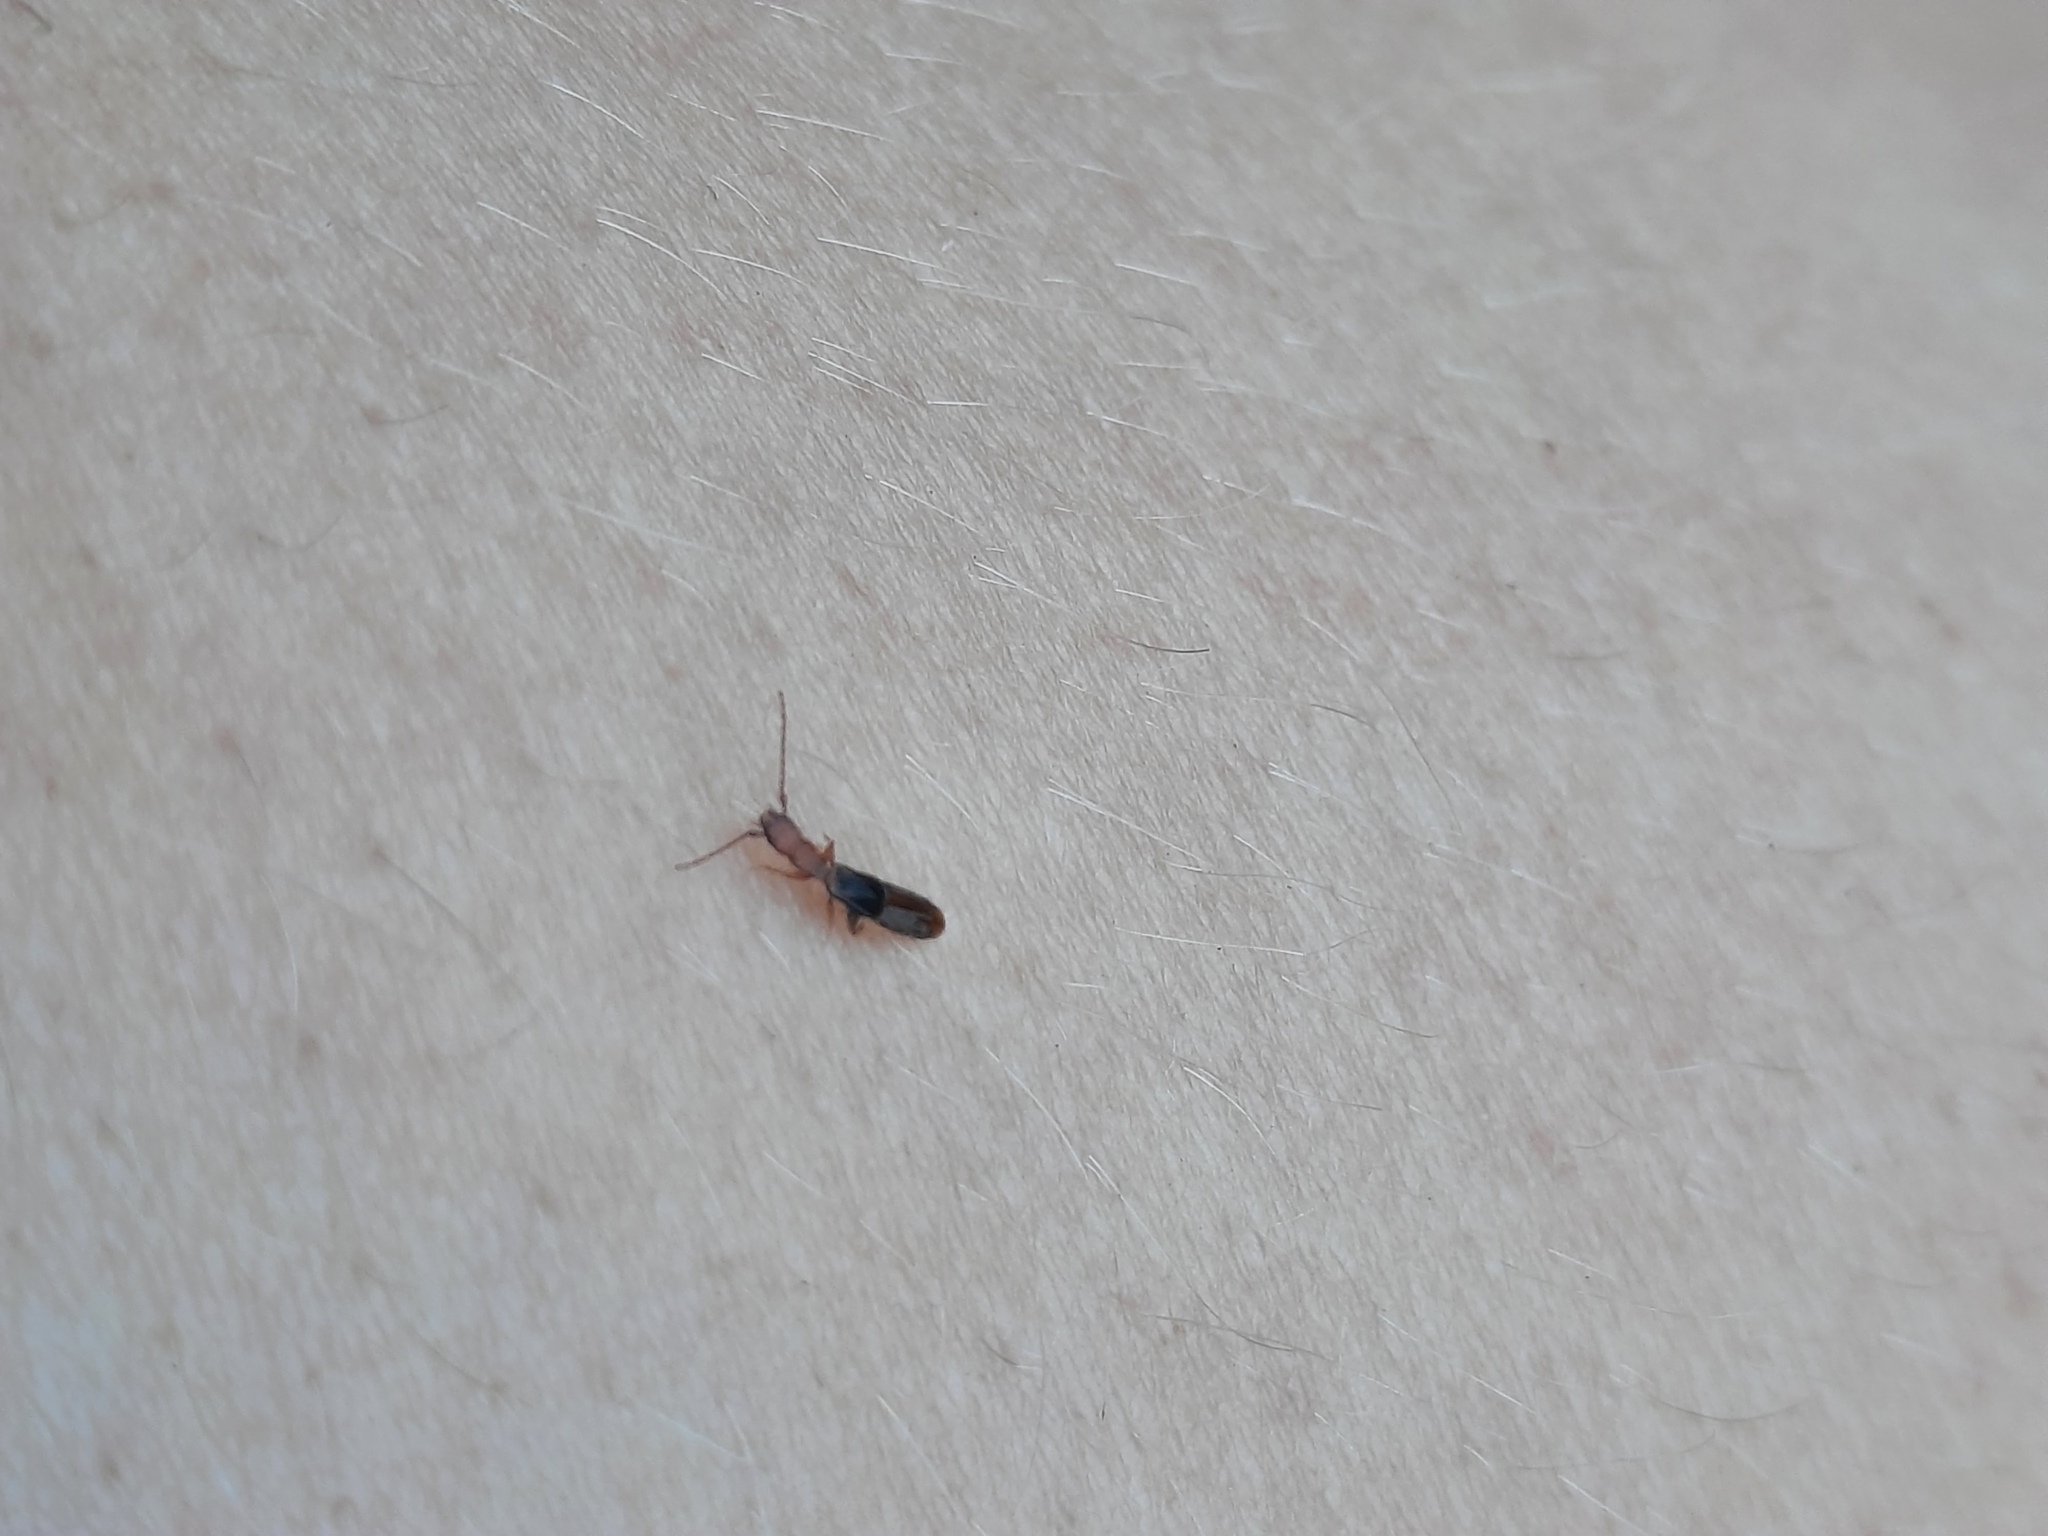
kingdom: Animalia
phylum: Arthropoda
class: Insecta
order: Coleoptera
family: Salpingidae
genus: Diagrypnodes
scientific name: Diagrypnodes
